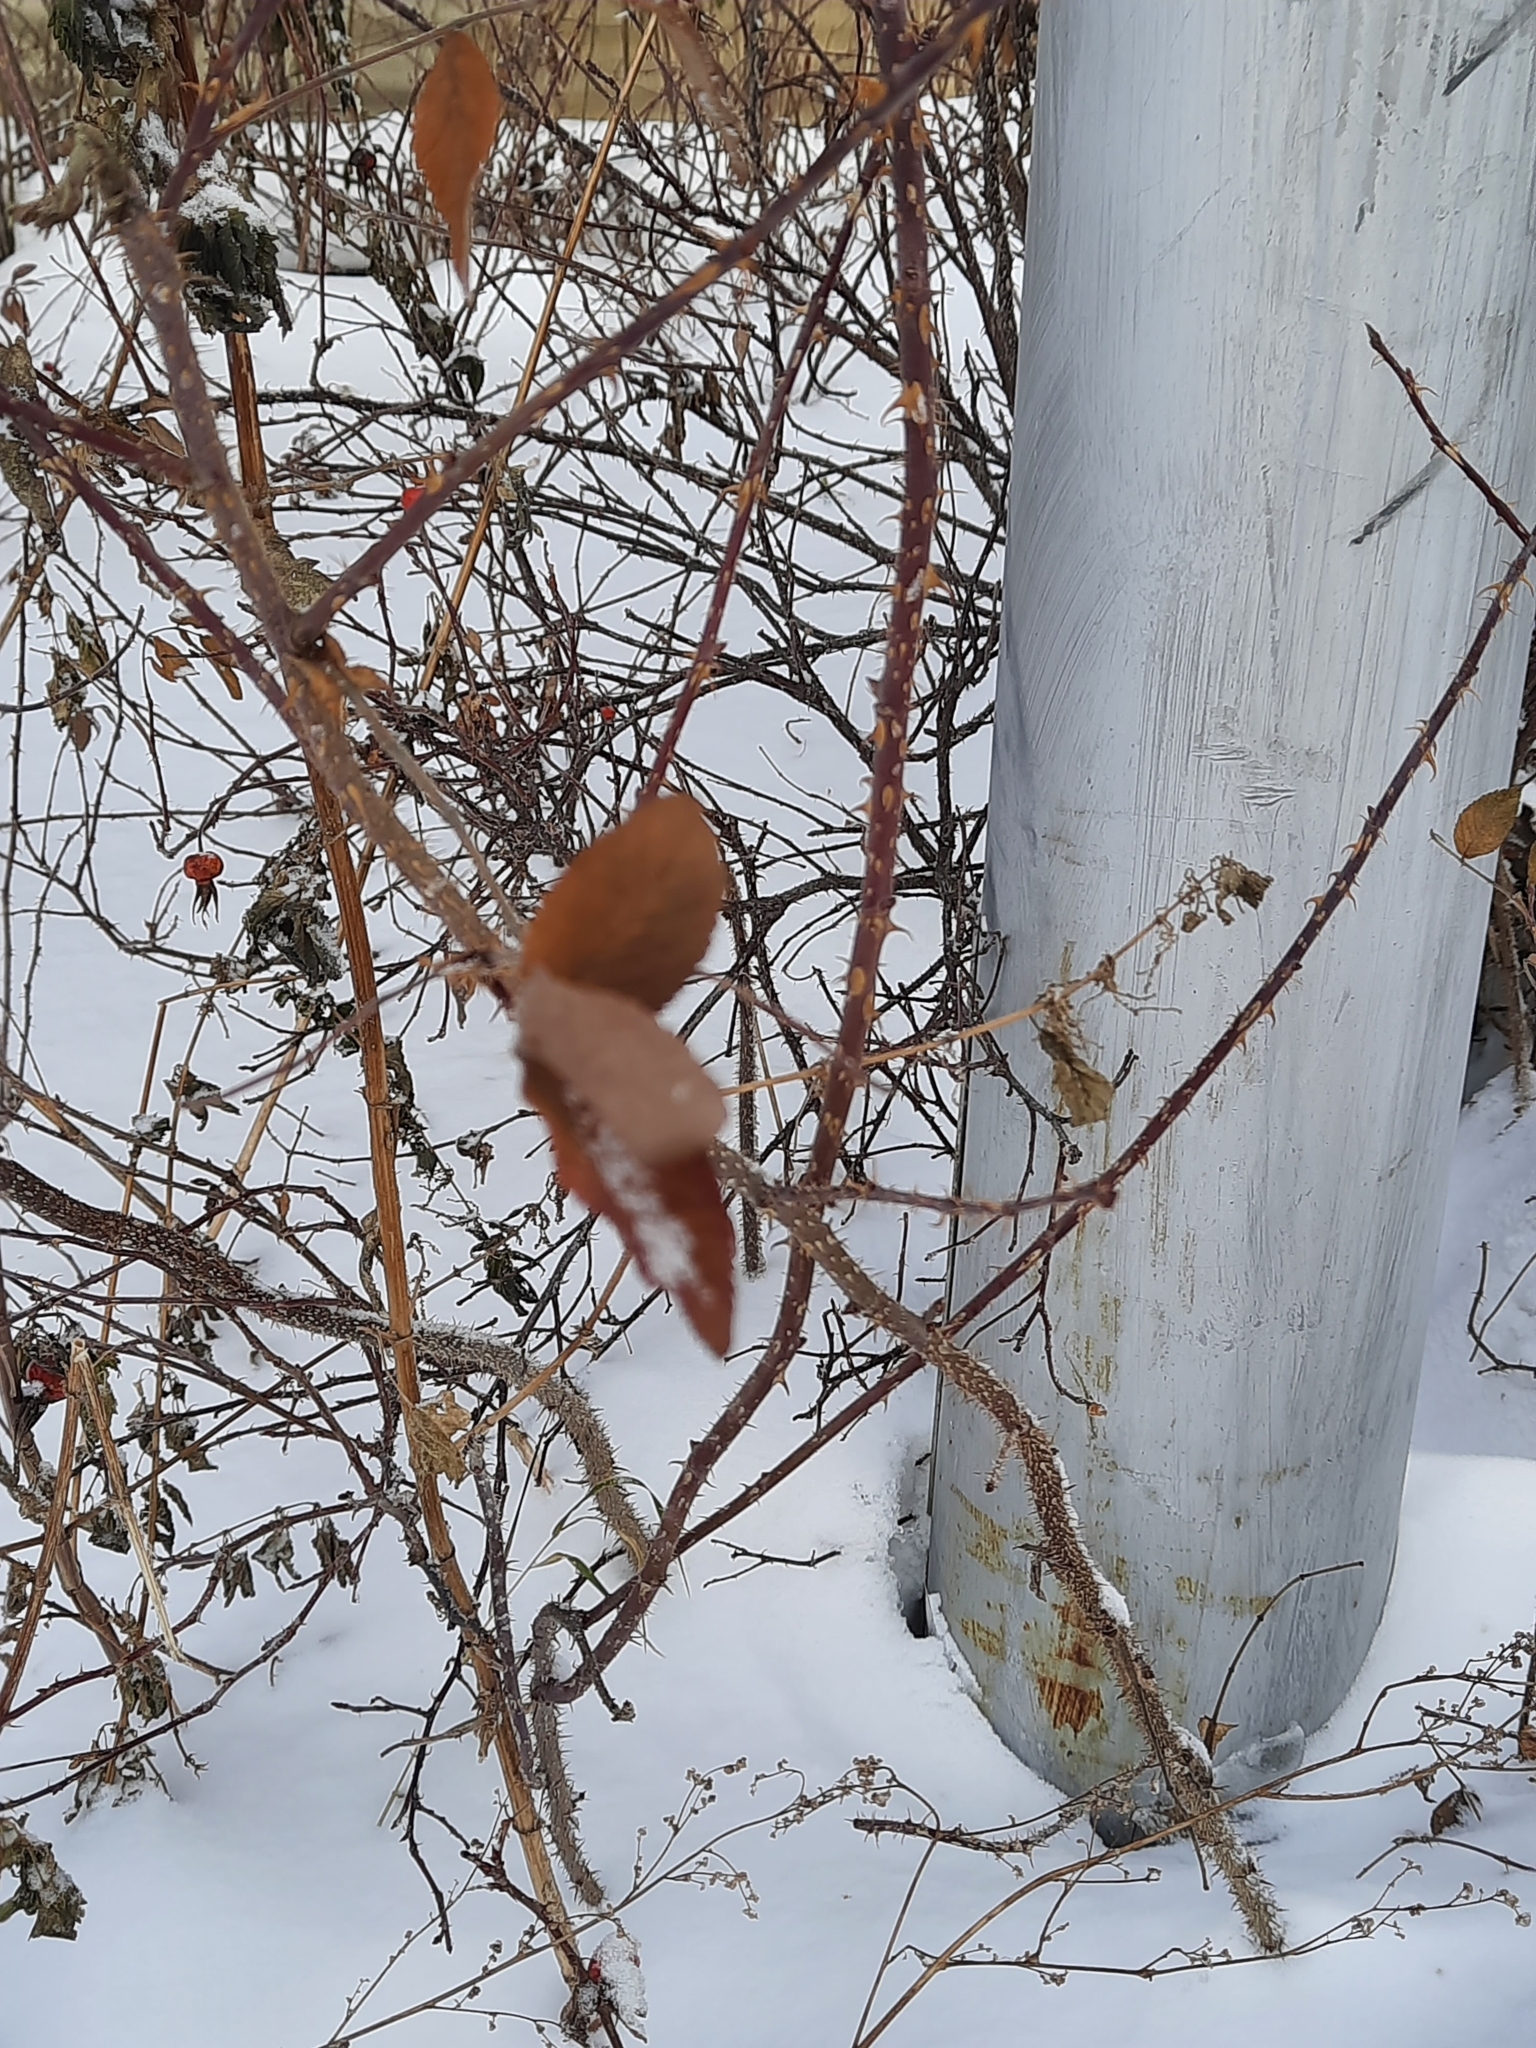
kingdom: Plantae
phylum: Tracheophyta
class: Magnoliopsida
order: Rosales
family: Rosaceae
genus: Rosa
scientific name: Rosa rugosa
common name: Japanese rose
